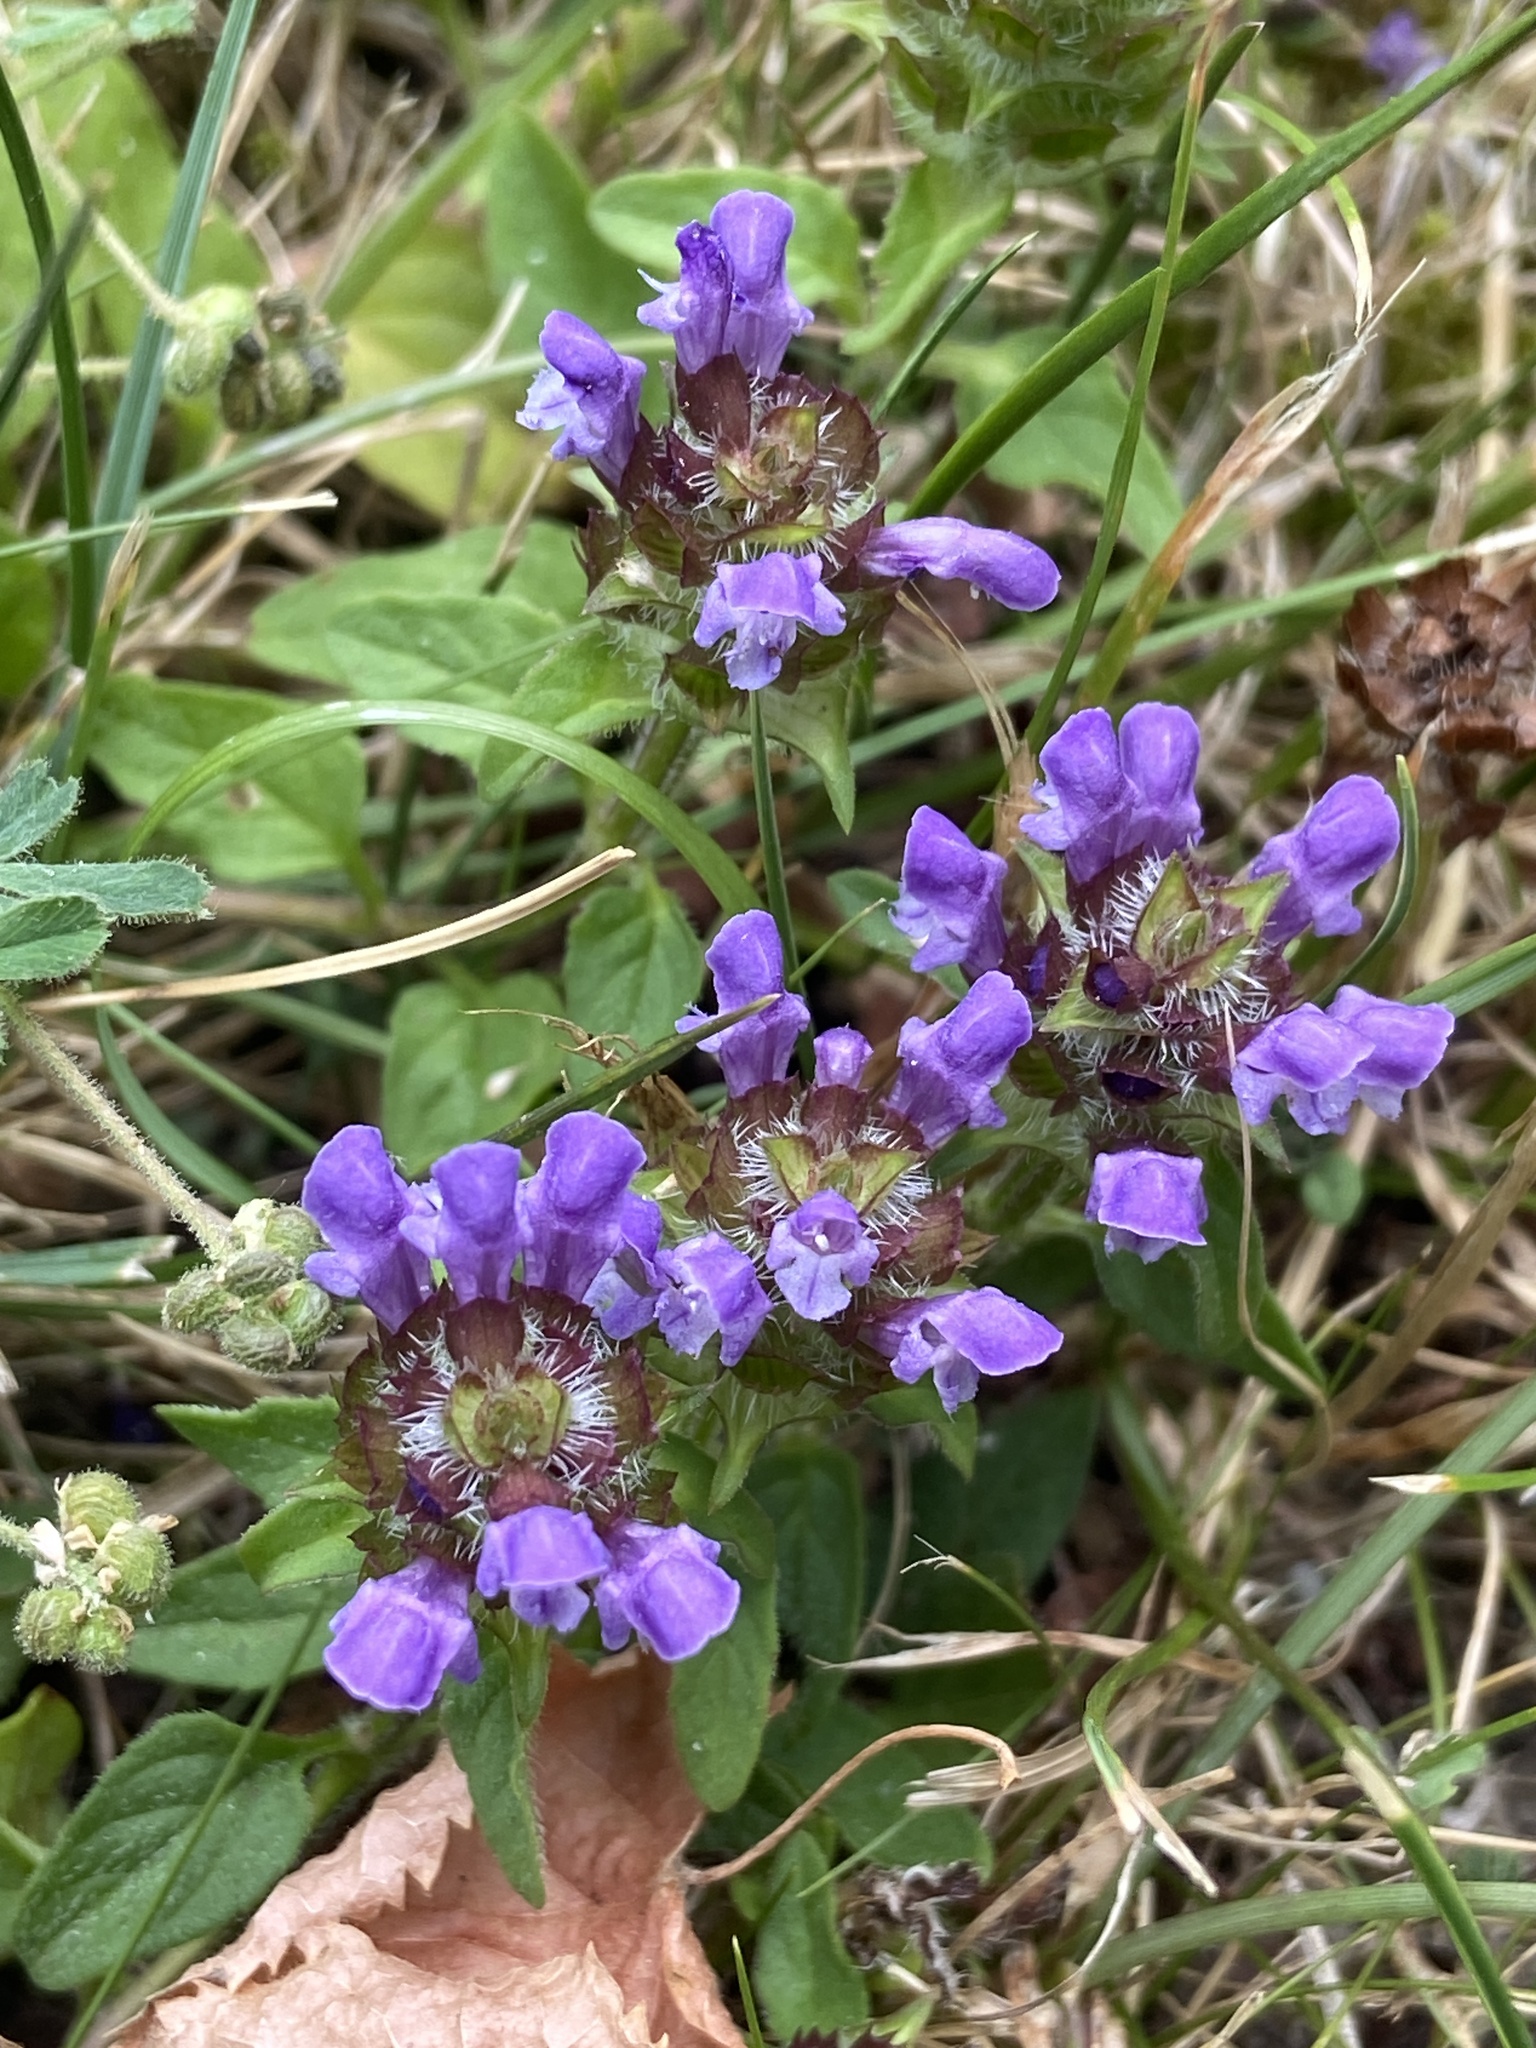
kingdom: Plantae
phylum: Tracheophyta
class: Magnoliopsida
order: Lamiales
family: Lamiaceae
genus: Prunella
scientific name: Prunella vulgaris
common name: Heal-all
